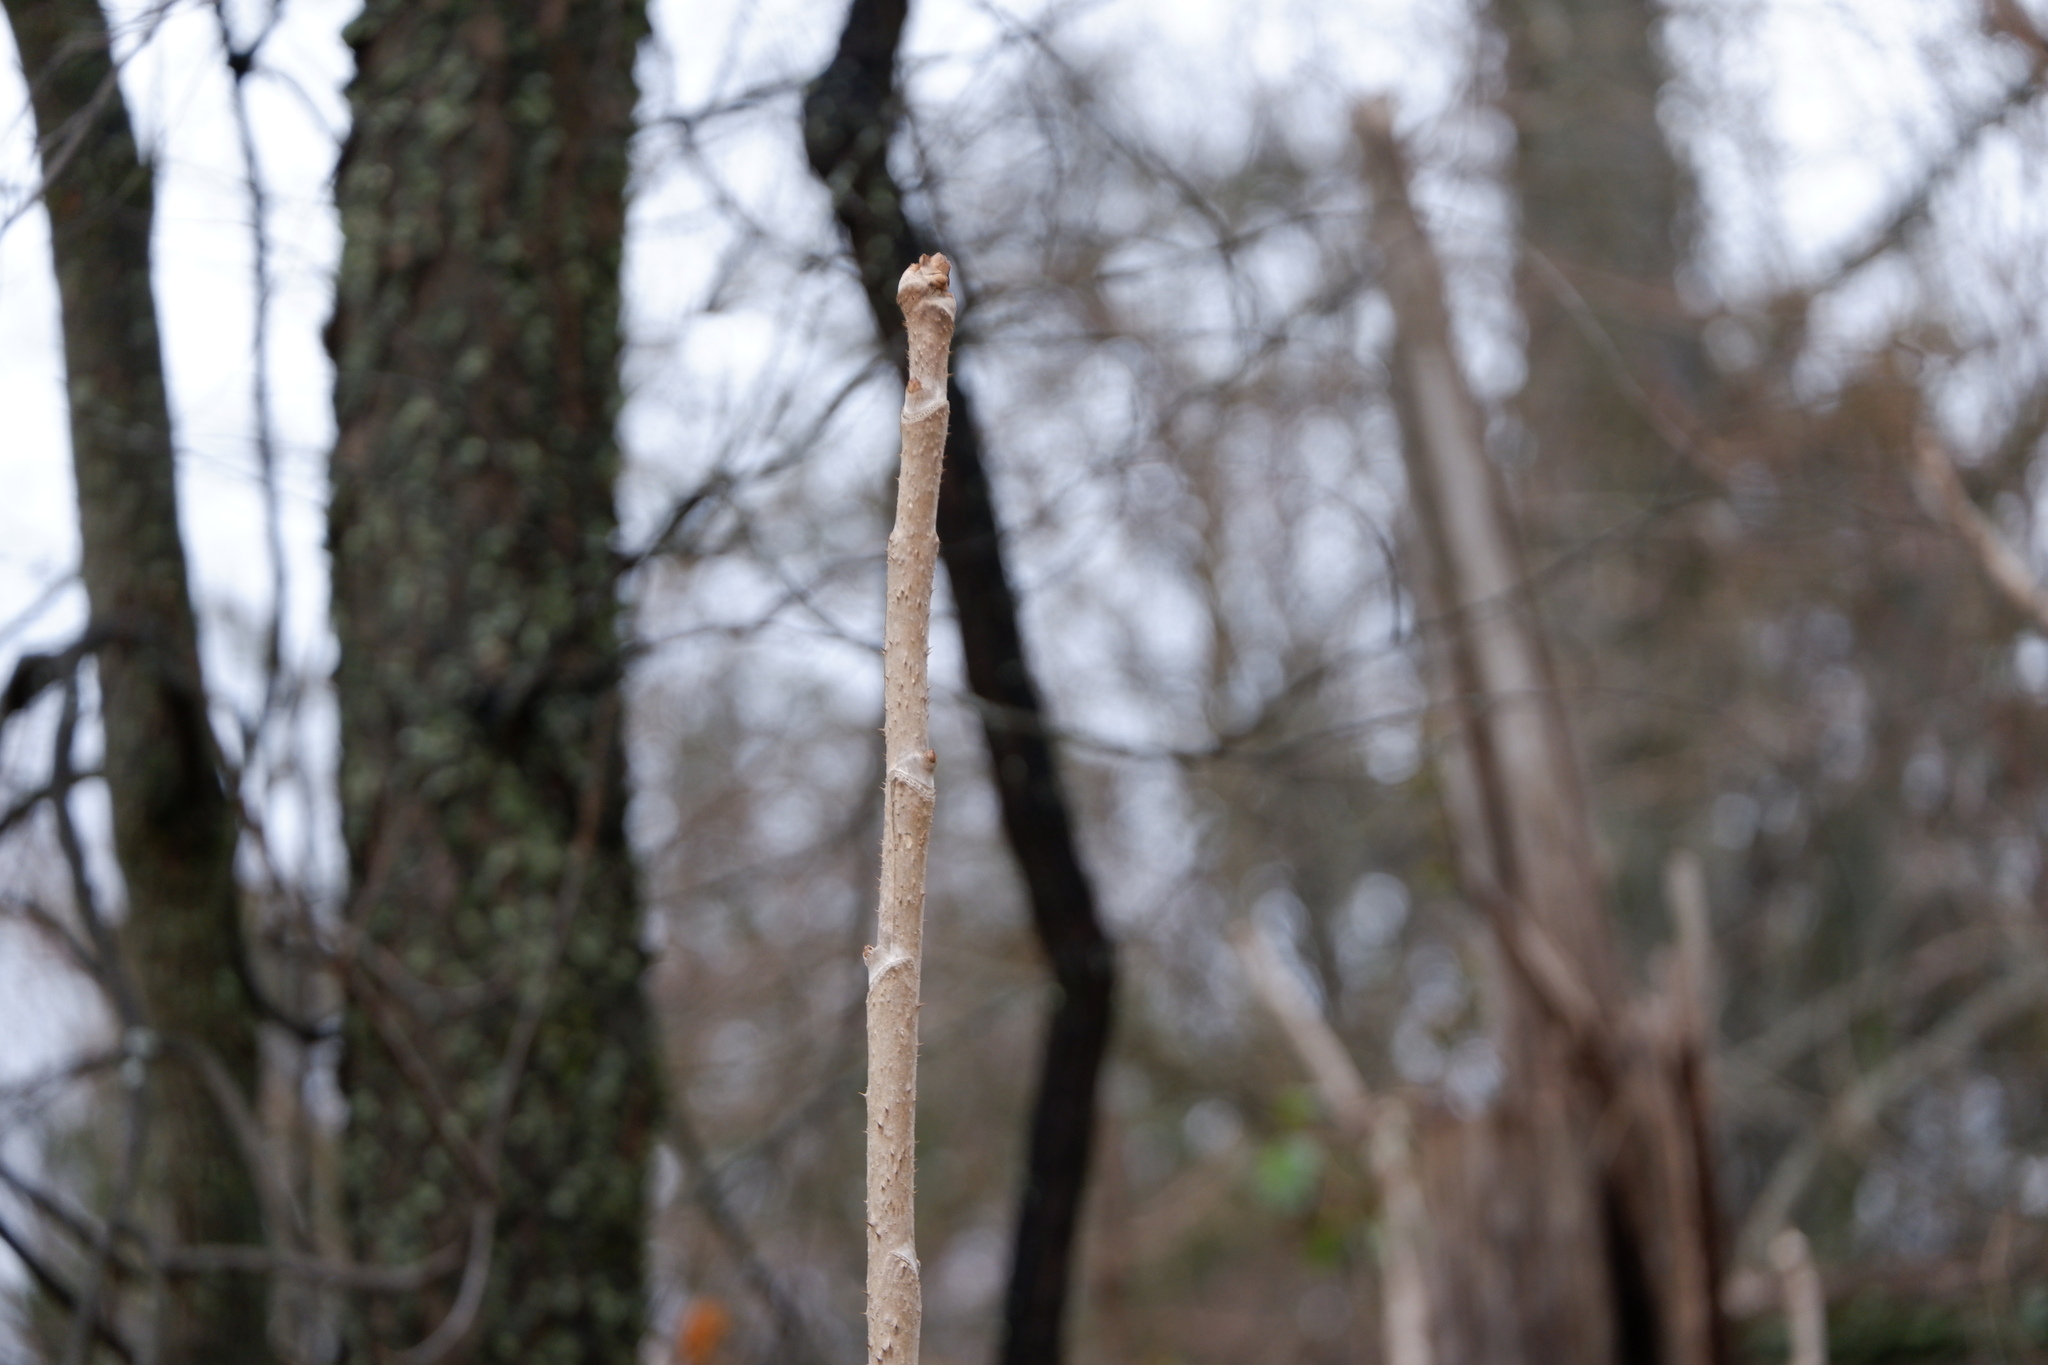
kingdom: Plantae
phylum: Tracheophyta
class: Magnoliopsida
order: Apiales
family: Araliaceae
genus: Aralia
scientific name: Aralia elata
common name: Japanese angelica-tree
